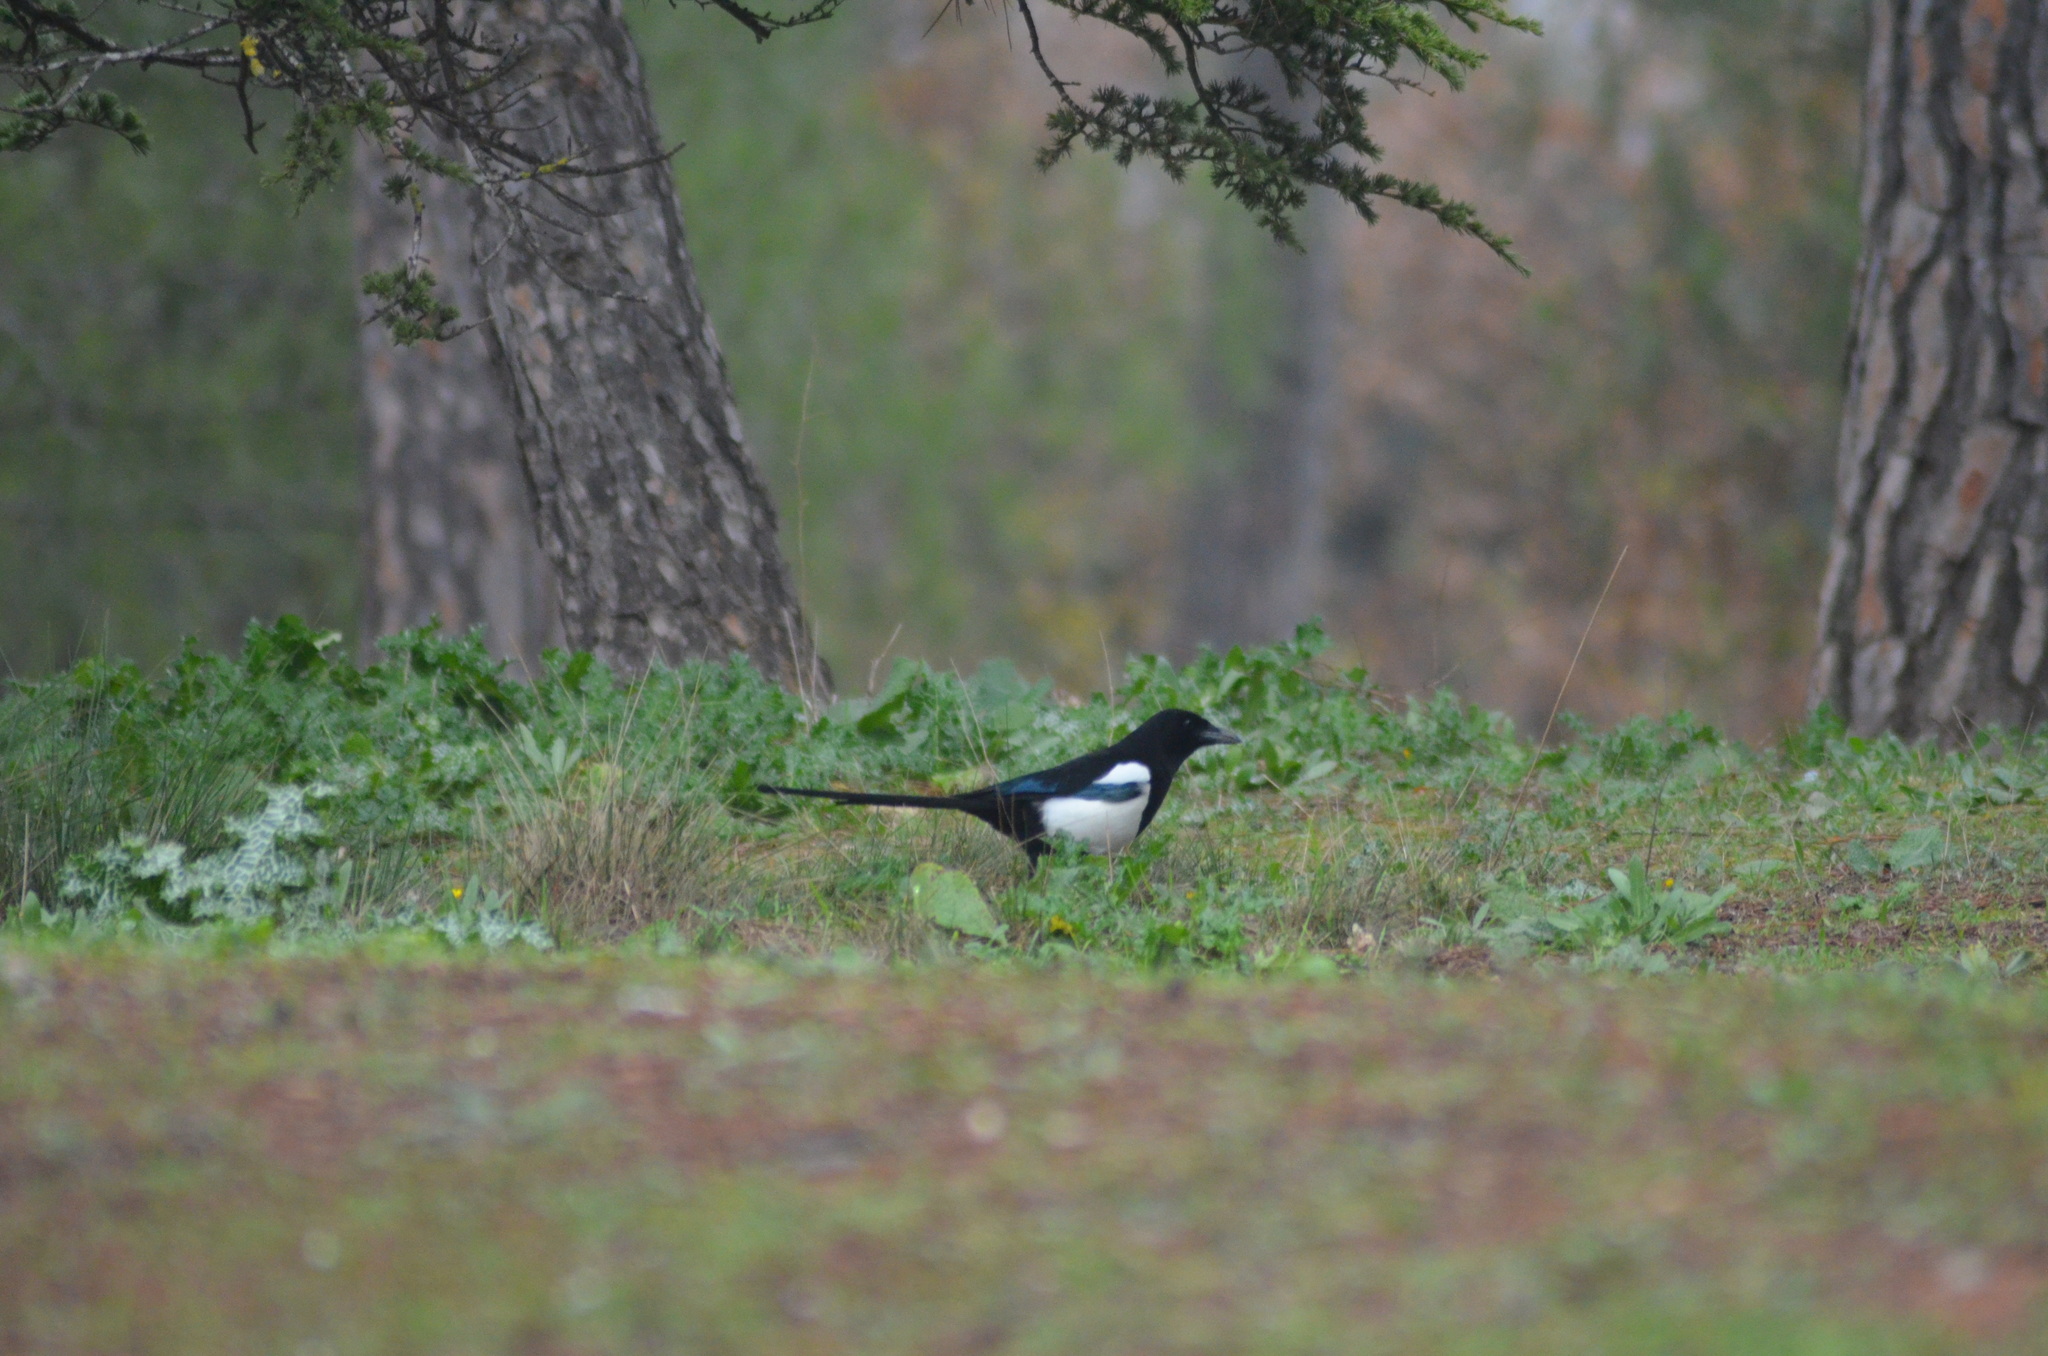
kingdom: Animalia
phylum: Chordata
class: Aves
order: Passeriformes
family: Corvidae
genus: Pica
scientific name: Pica pica
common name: Eurasian magpie
